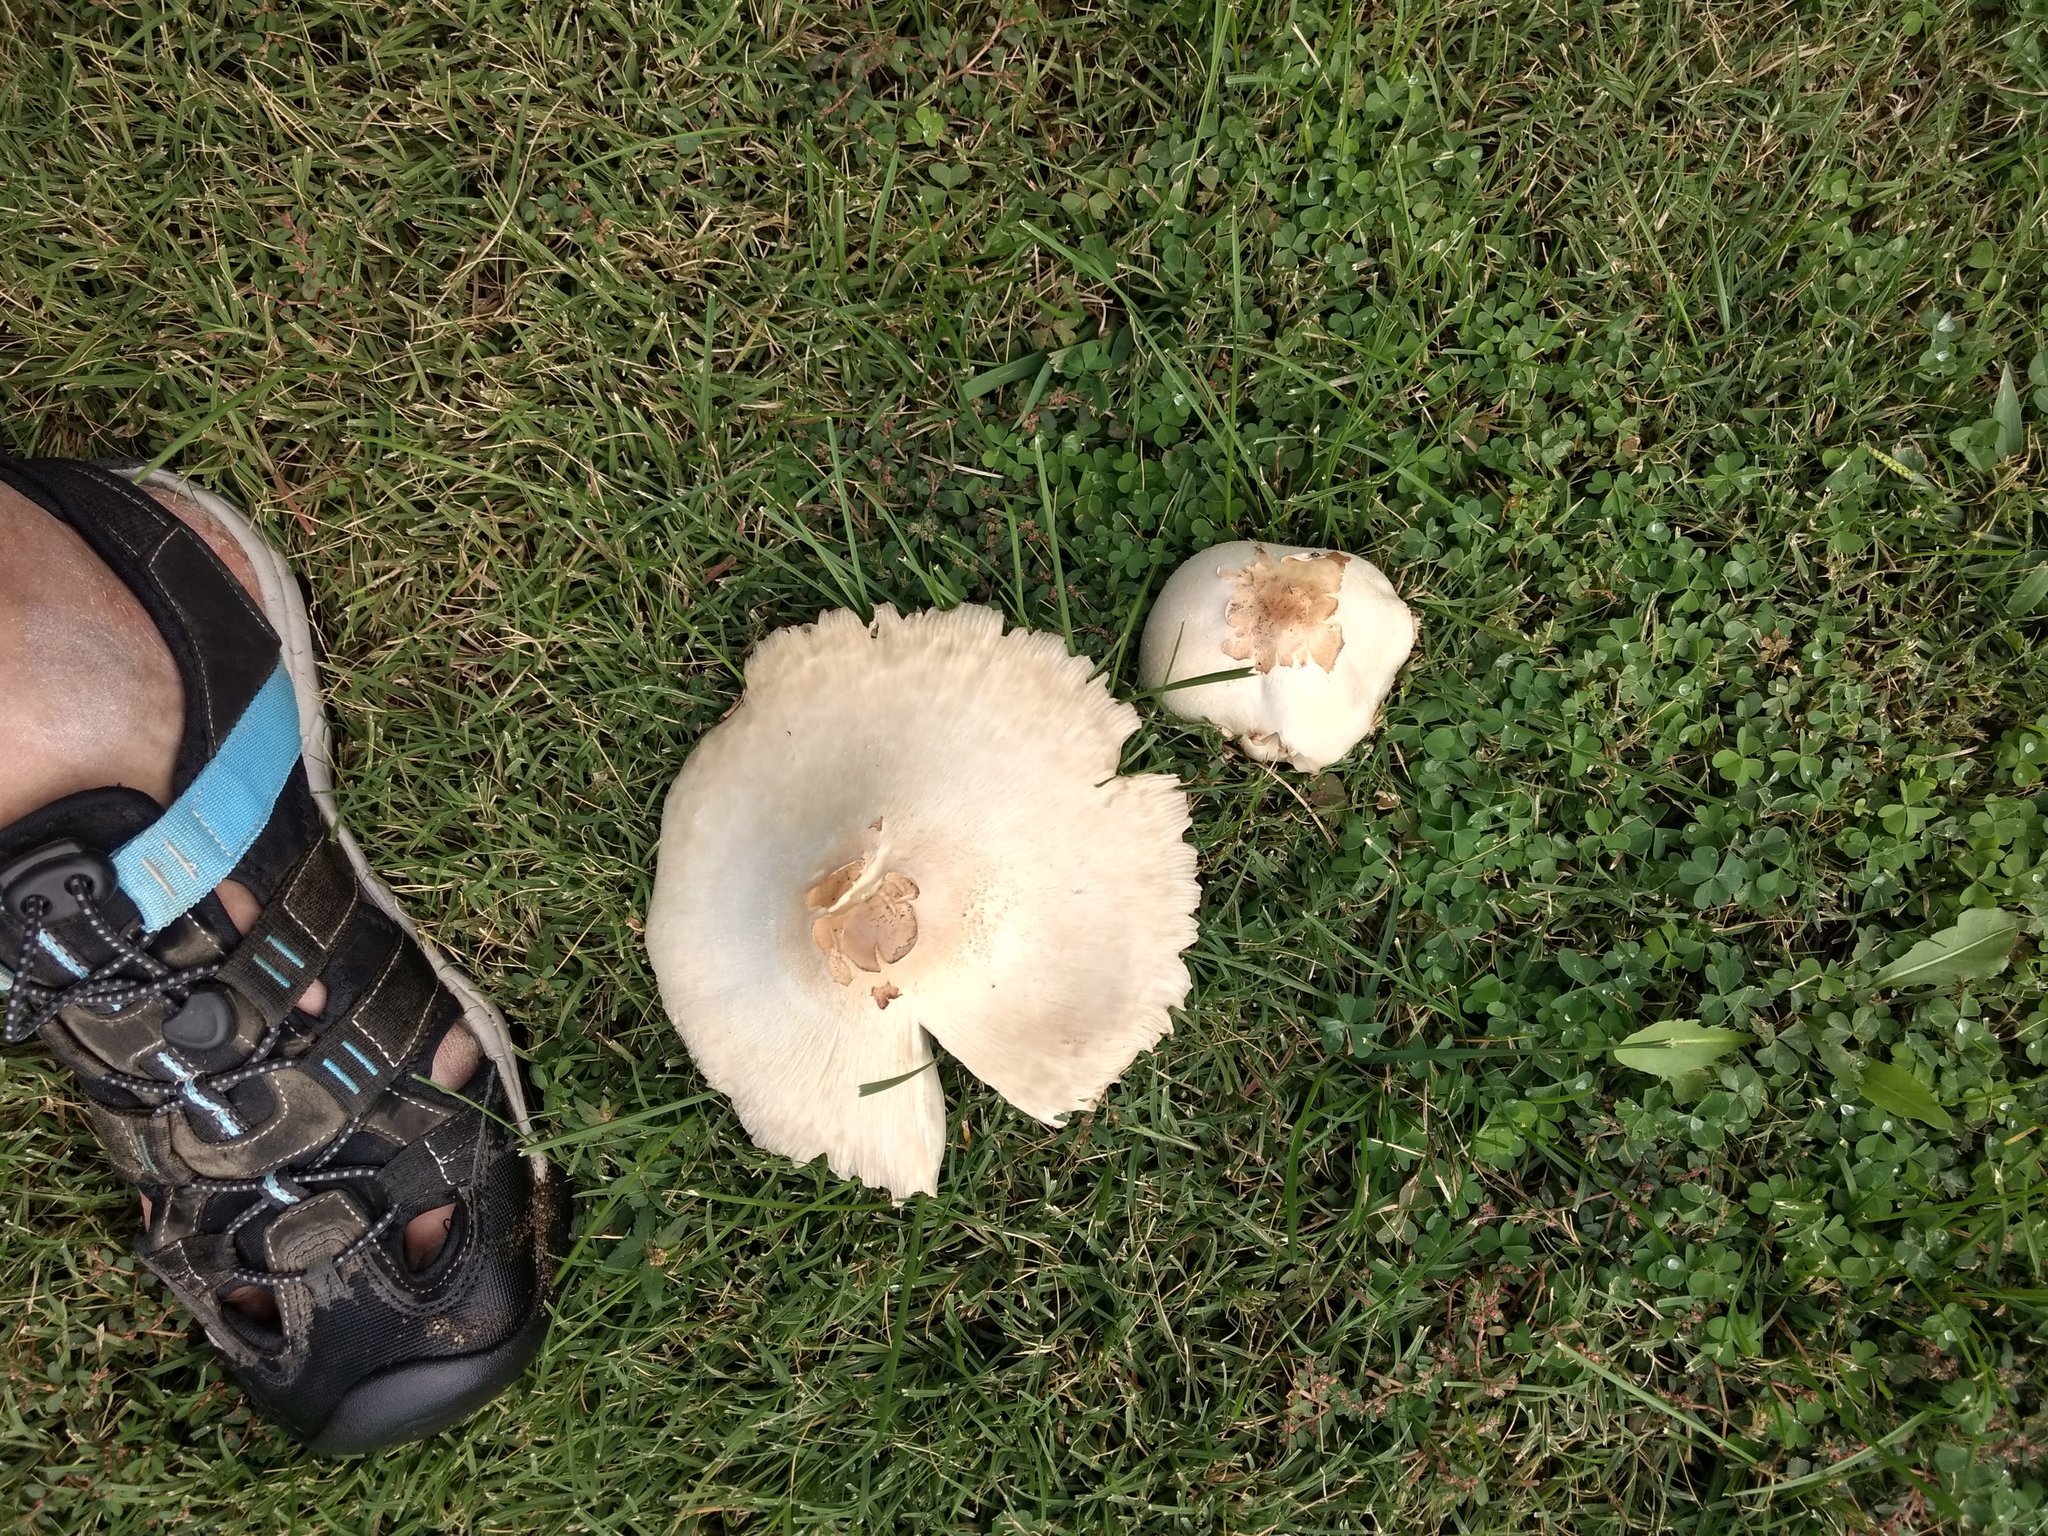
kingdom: Fungi
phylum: Basidiomycota
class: Agaricomycetes
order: Agaricales
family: Agaricaceae
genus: Chlorophyllum
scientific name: Chlorophyllum molybdites
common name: False parasol
